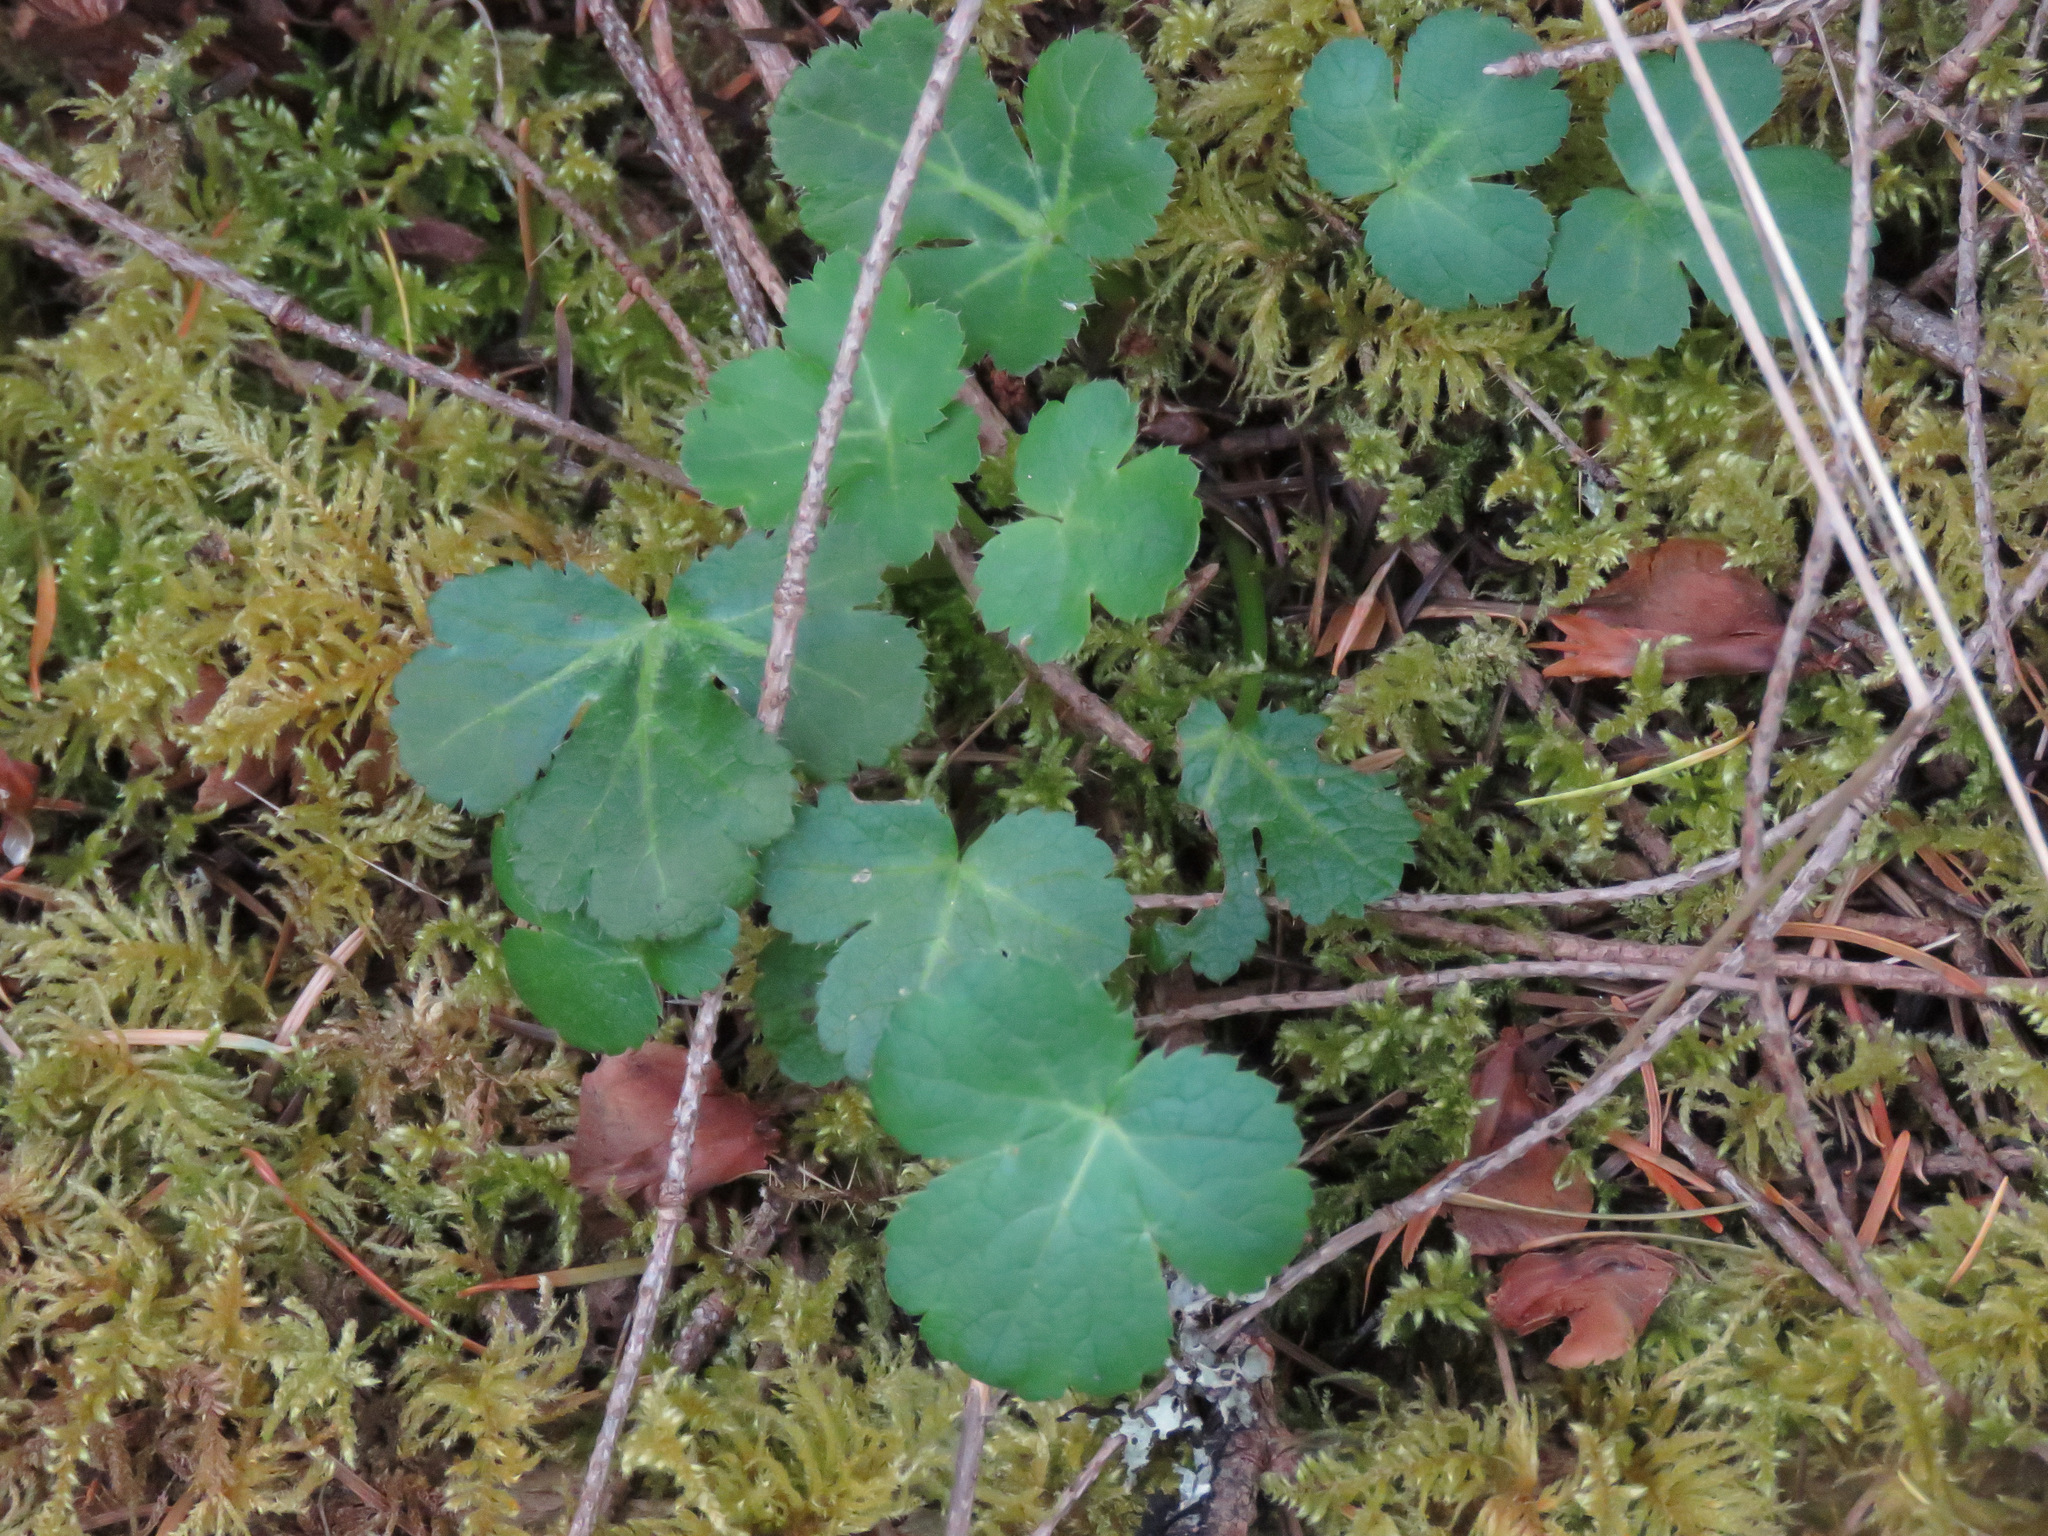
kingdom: Plantae
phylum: Tracheophyta
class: Magnoliopsida
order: Apiales
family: Apiaceae
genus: Sanicula
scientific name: Sanicula crassicaulis
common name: Western snakeroot
